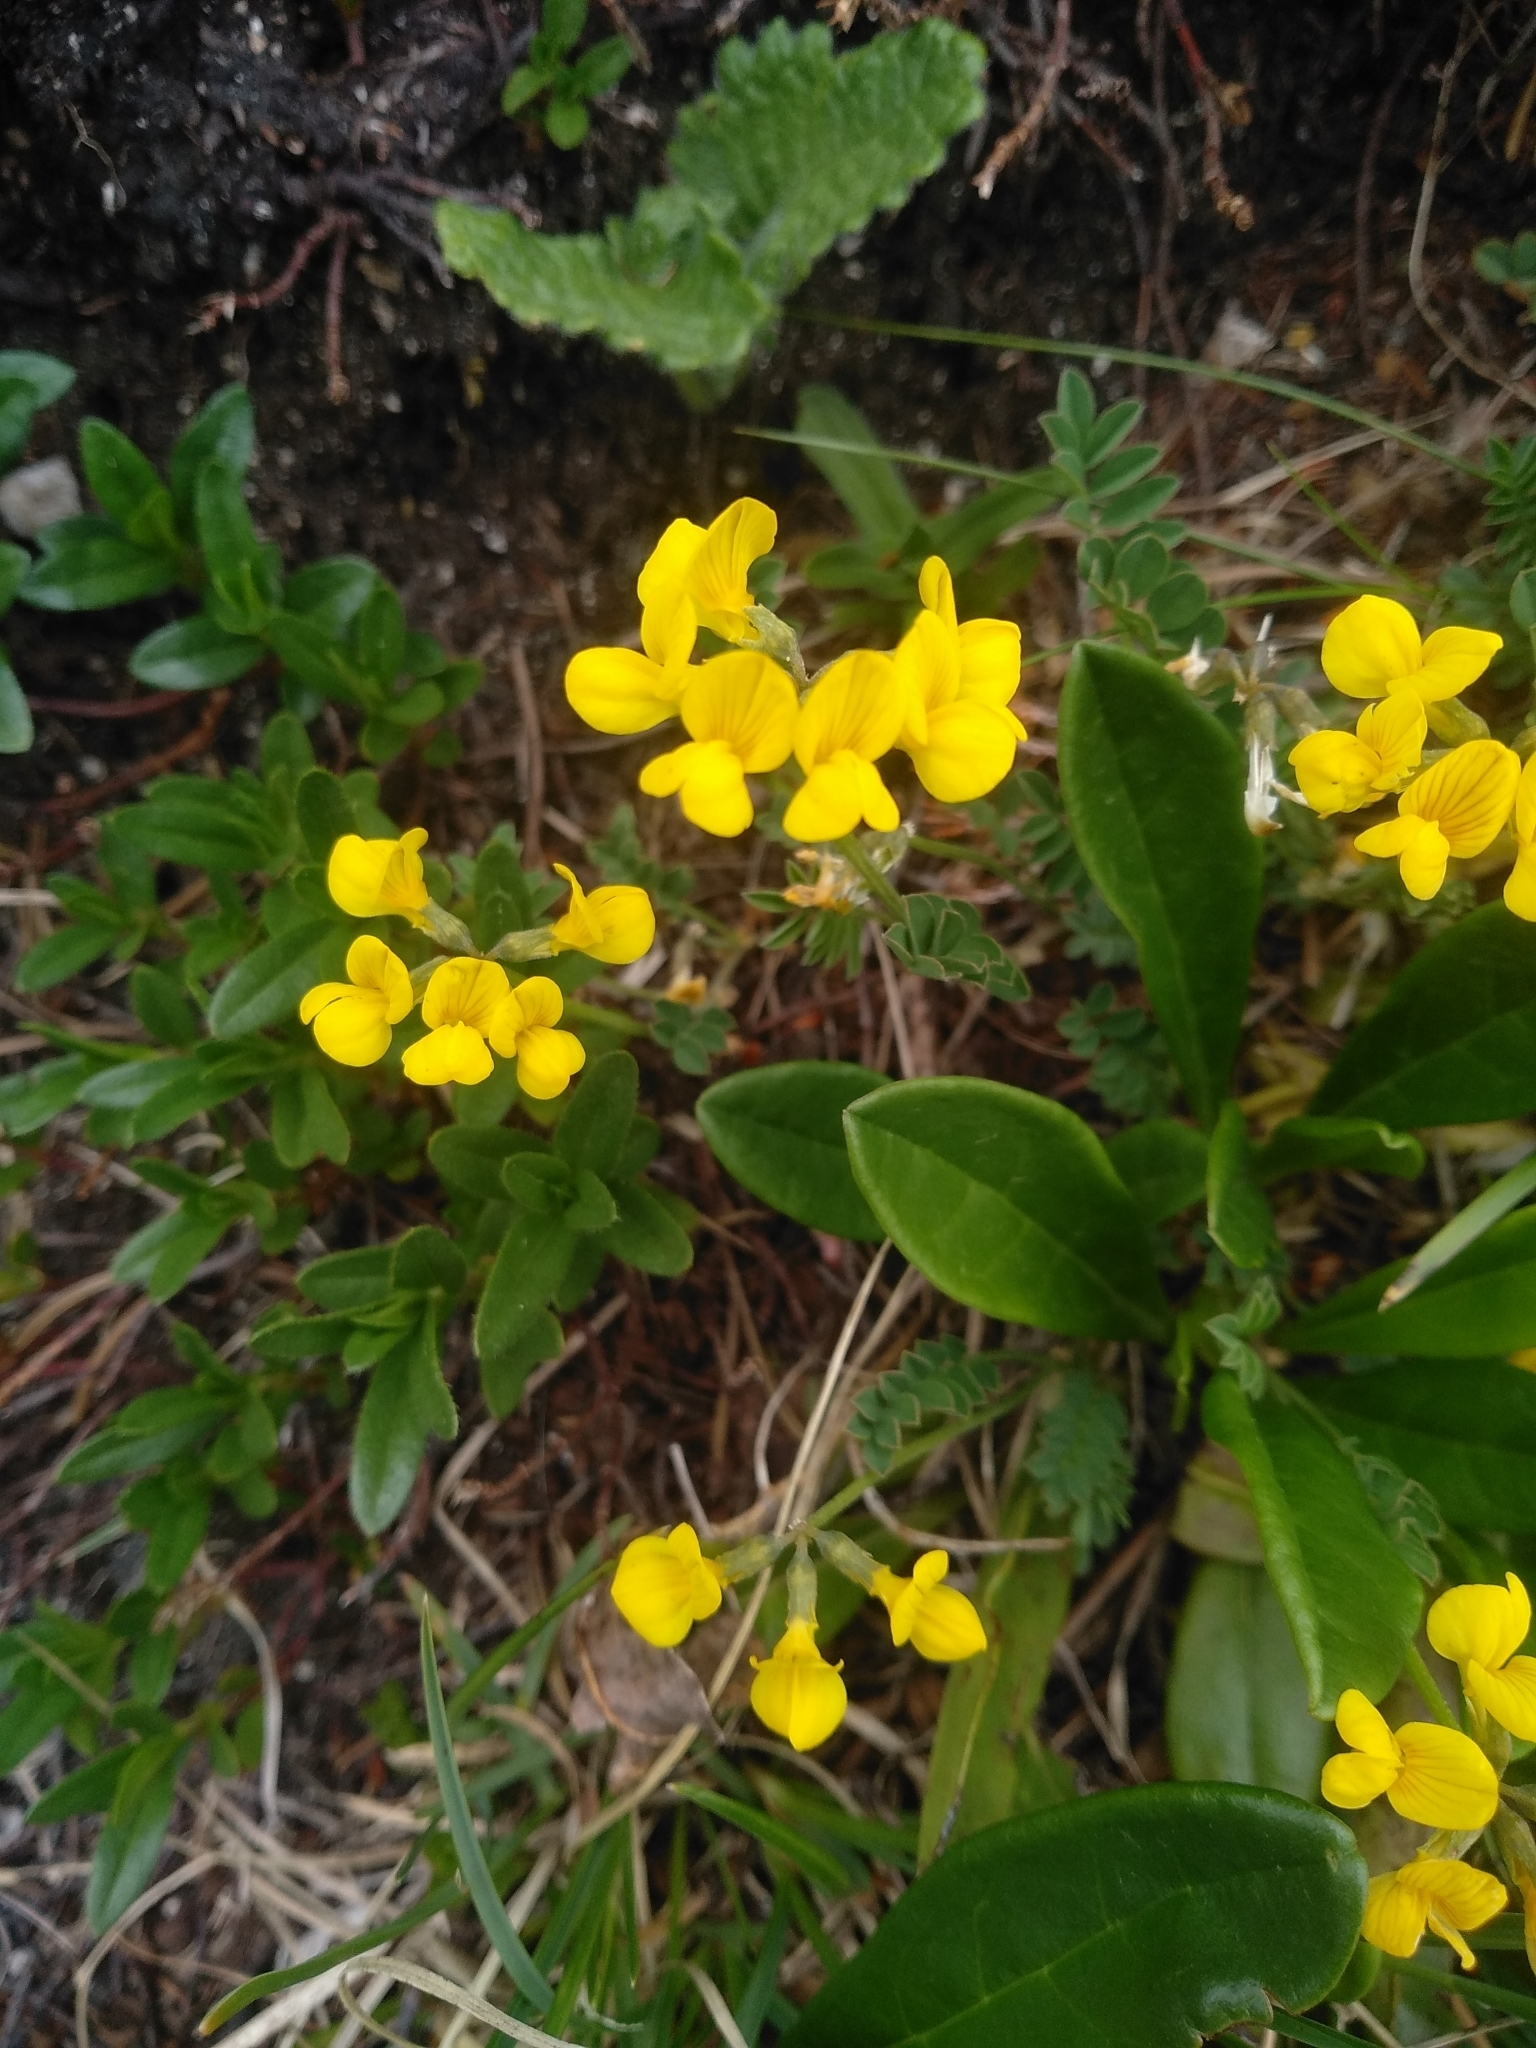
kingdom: Plantae
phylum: Tracheophyta
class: Magnoliopsida
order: Fabales
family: Fabaceae
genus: Hippocrepis
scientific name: Hippocrepis comosa
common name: Horseshoe vetch
